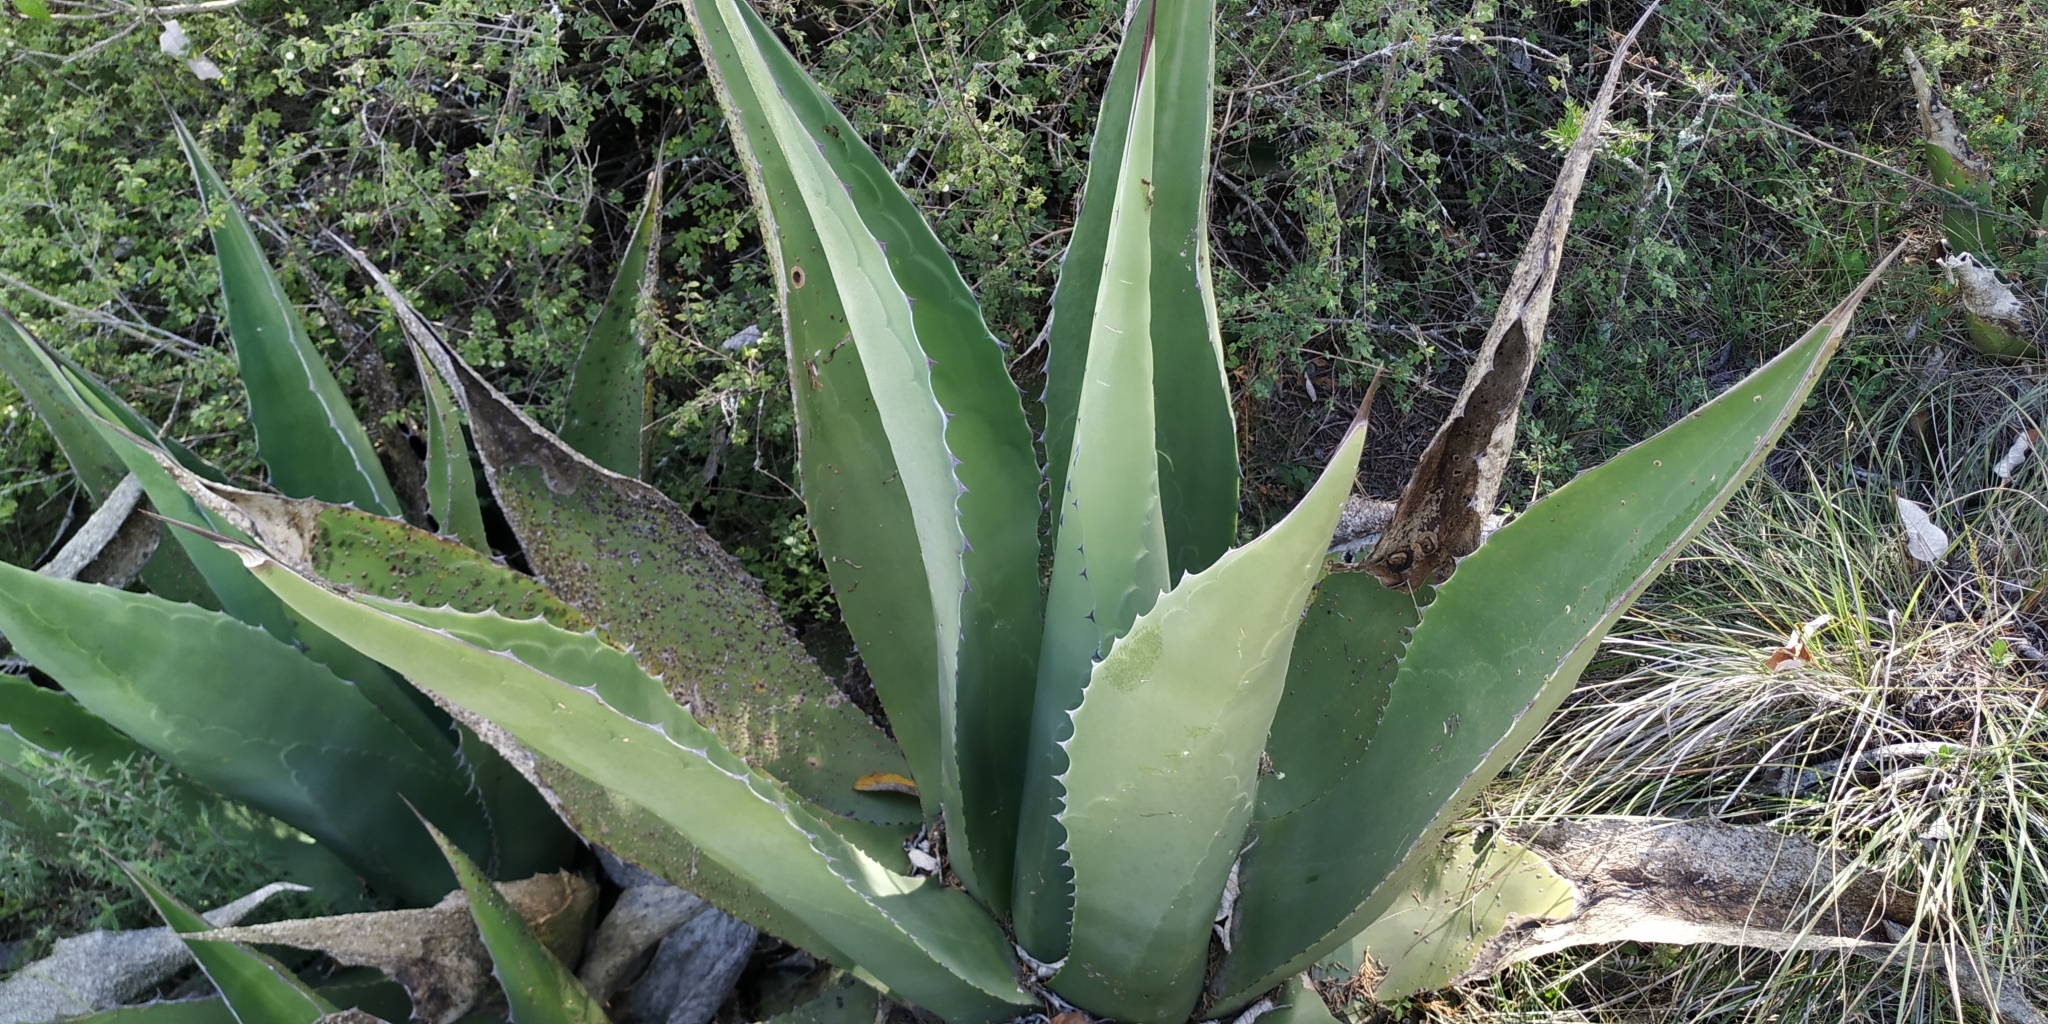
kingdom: Plantae
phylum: Tracheophyta
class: Liliopsida
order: Asparagales
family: Asparagaceae
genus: Agave
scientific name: Agave salmiana
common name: Pulque agave
